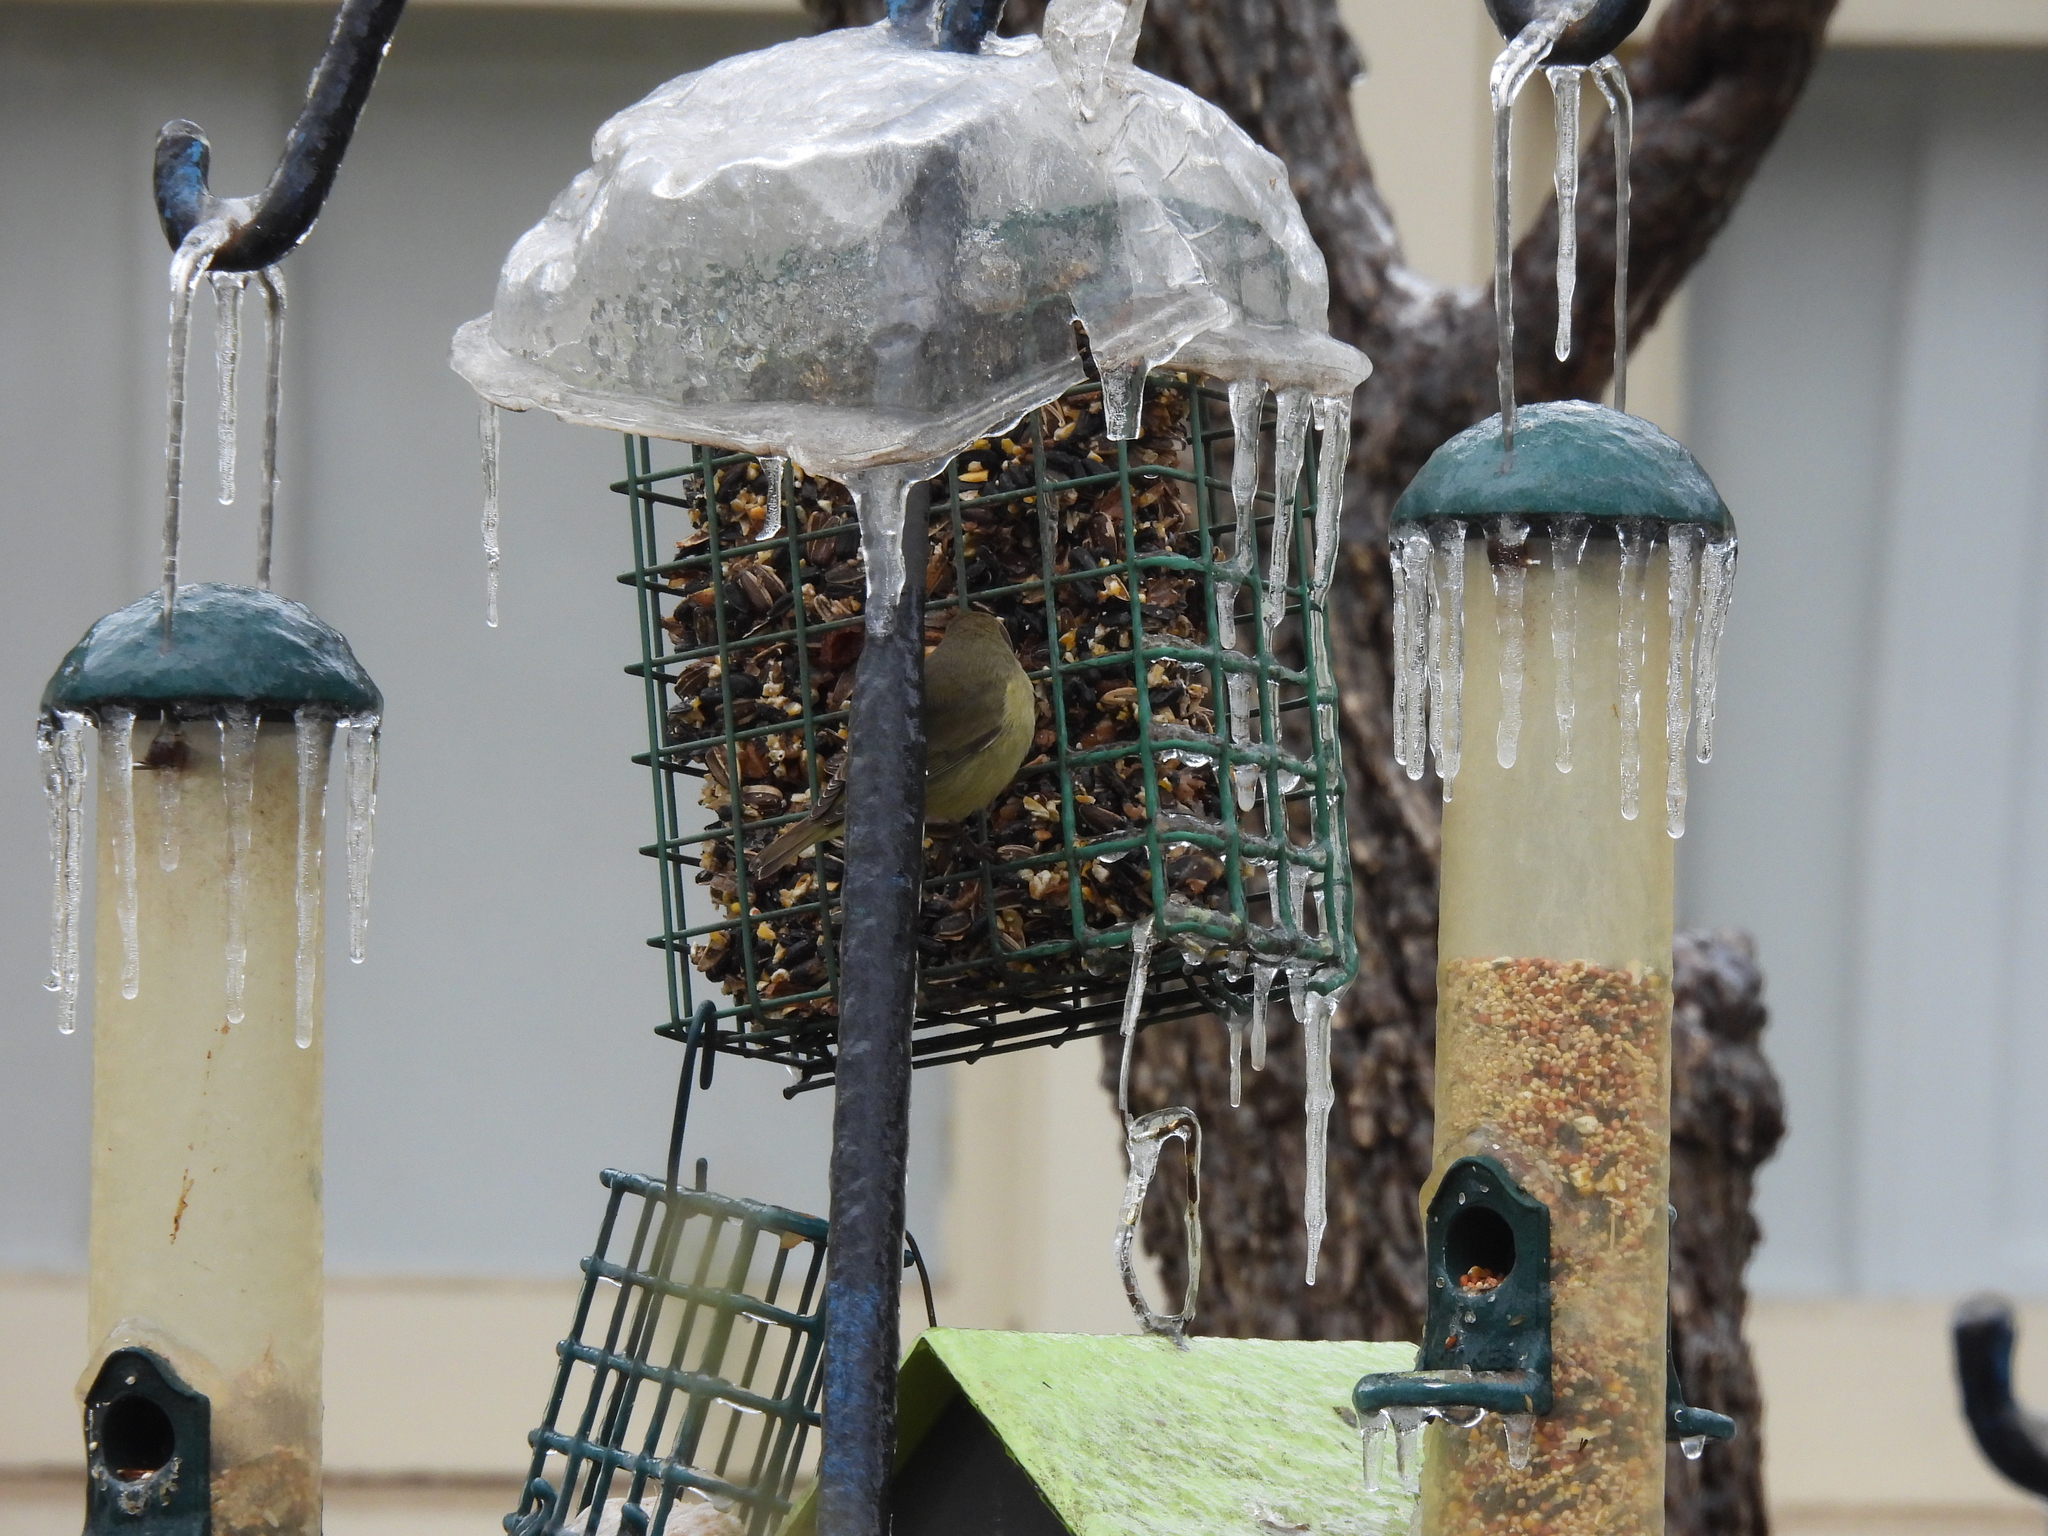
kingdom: Animalia
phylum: Chordata
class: Aves
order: Passeriformes
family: Parulidae
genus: Leiothlypis
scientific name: Leiothlypis celata
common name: Orange-crowned warbler
